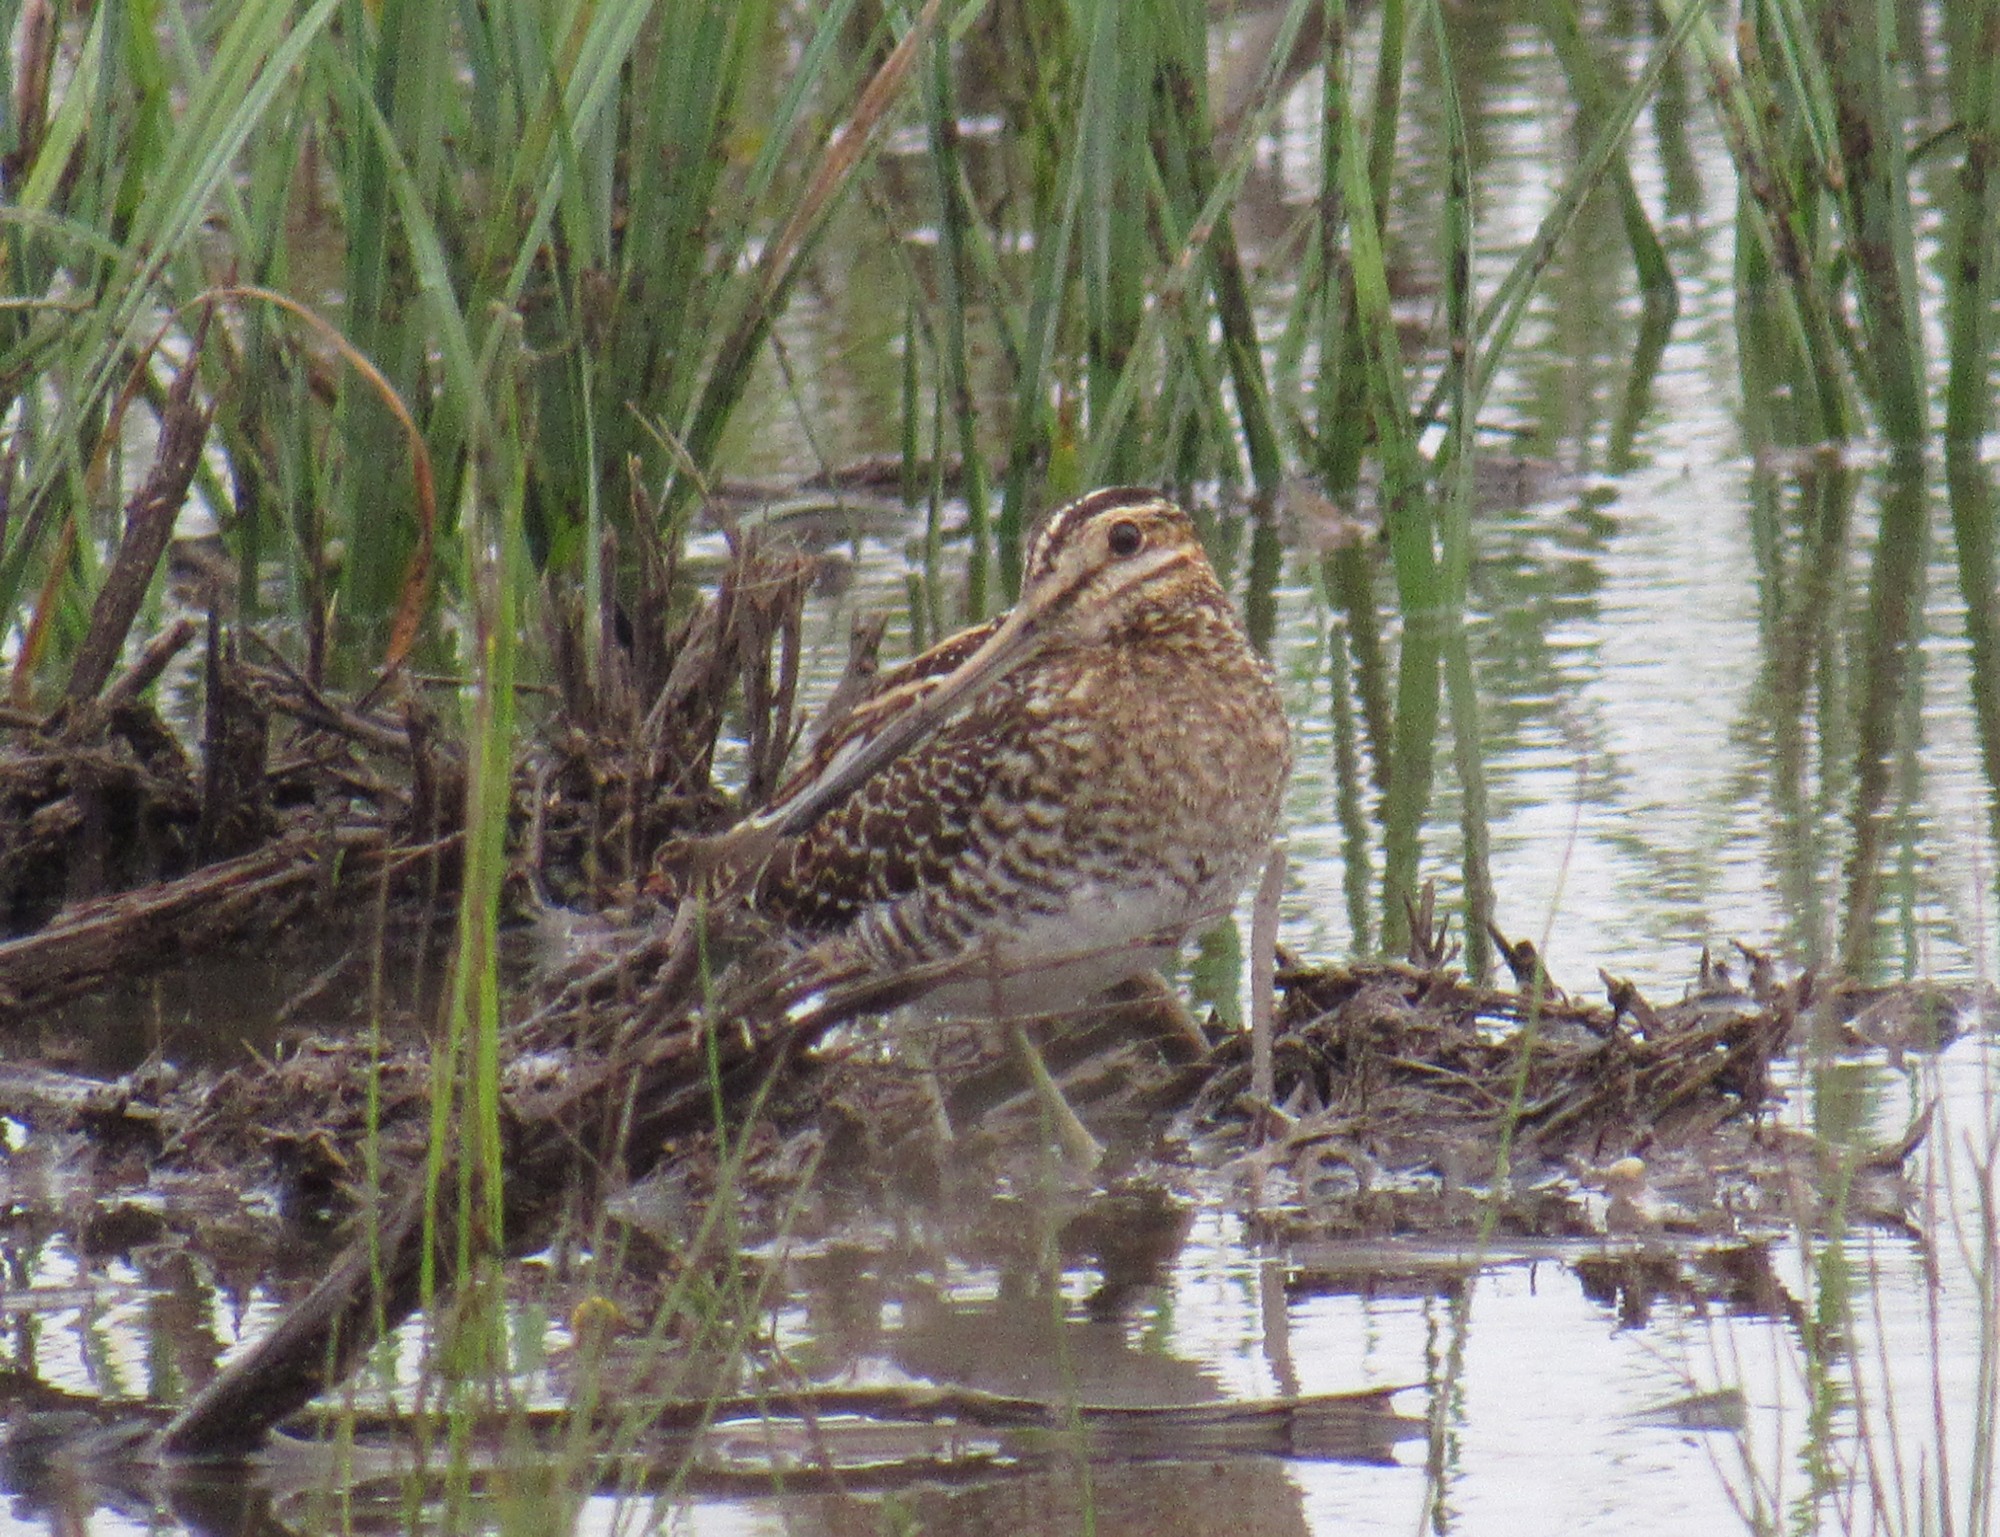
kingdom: Animalia
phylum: Chordata
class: Aves
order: Charadriiformes
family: Scolopacidae
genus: Gallinago
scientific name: Gallinago delicata
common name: Wilson's snipe
